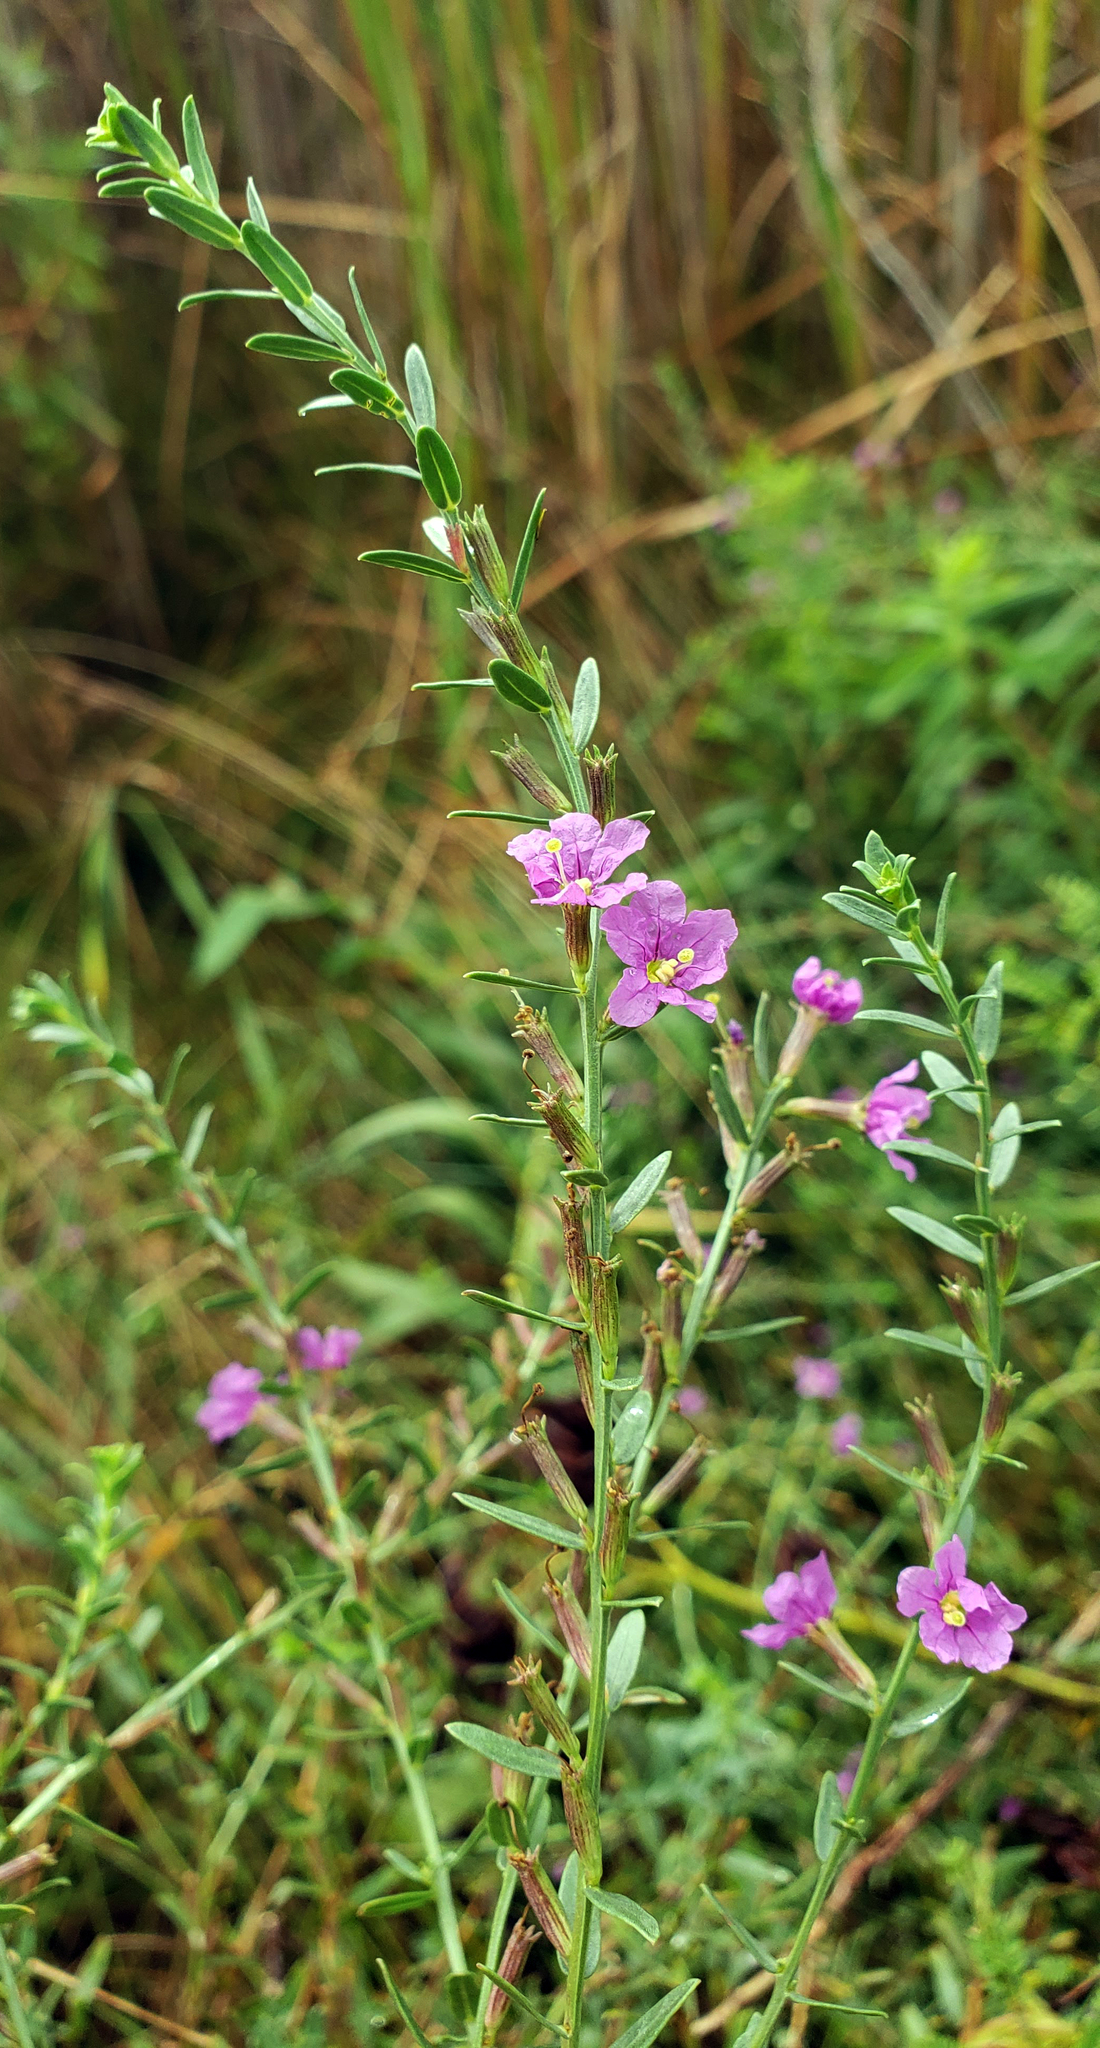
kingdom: Plantae
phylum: Tracheophyta
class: Magnoliopsida
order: Myrtales
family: Lythraceae
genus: Lythrum
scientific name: Lythrum alatum
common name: Winged loosestrife
